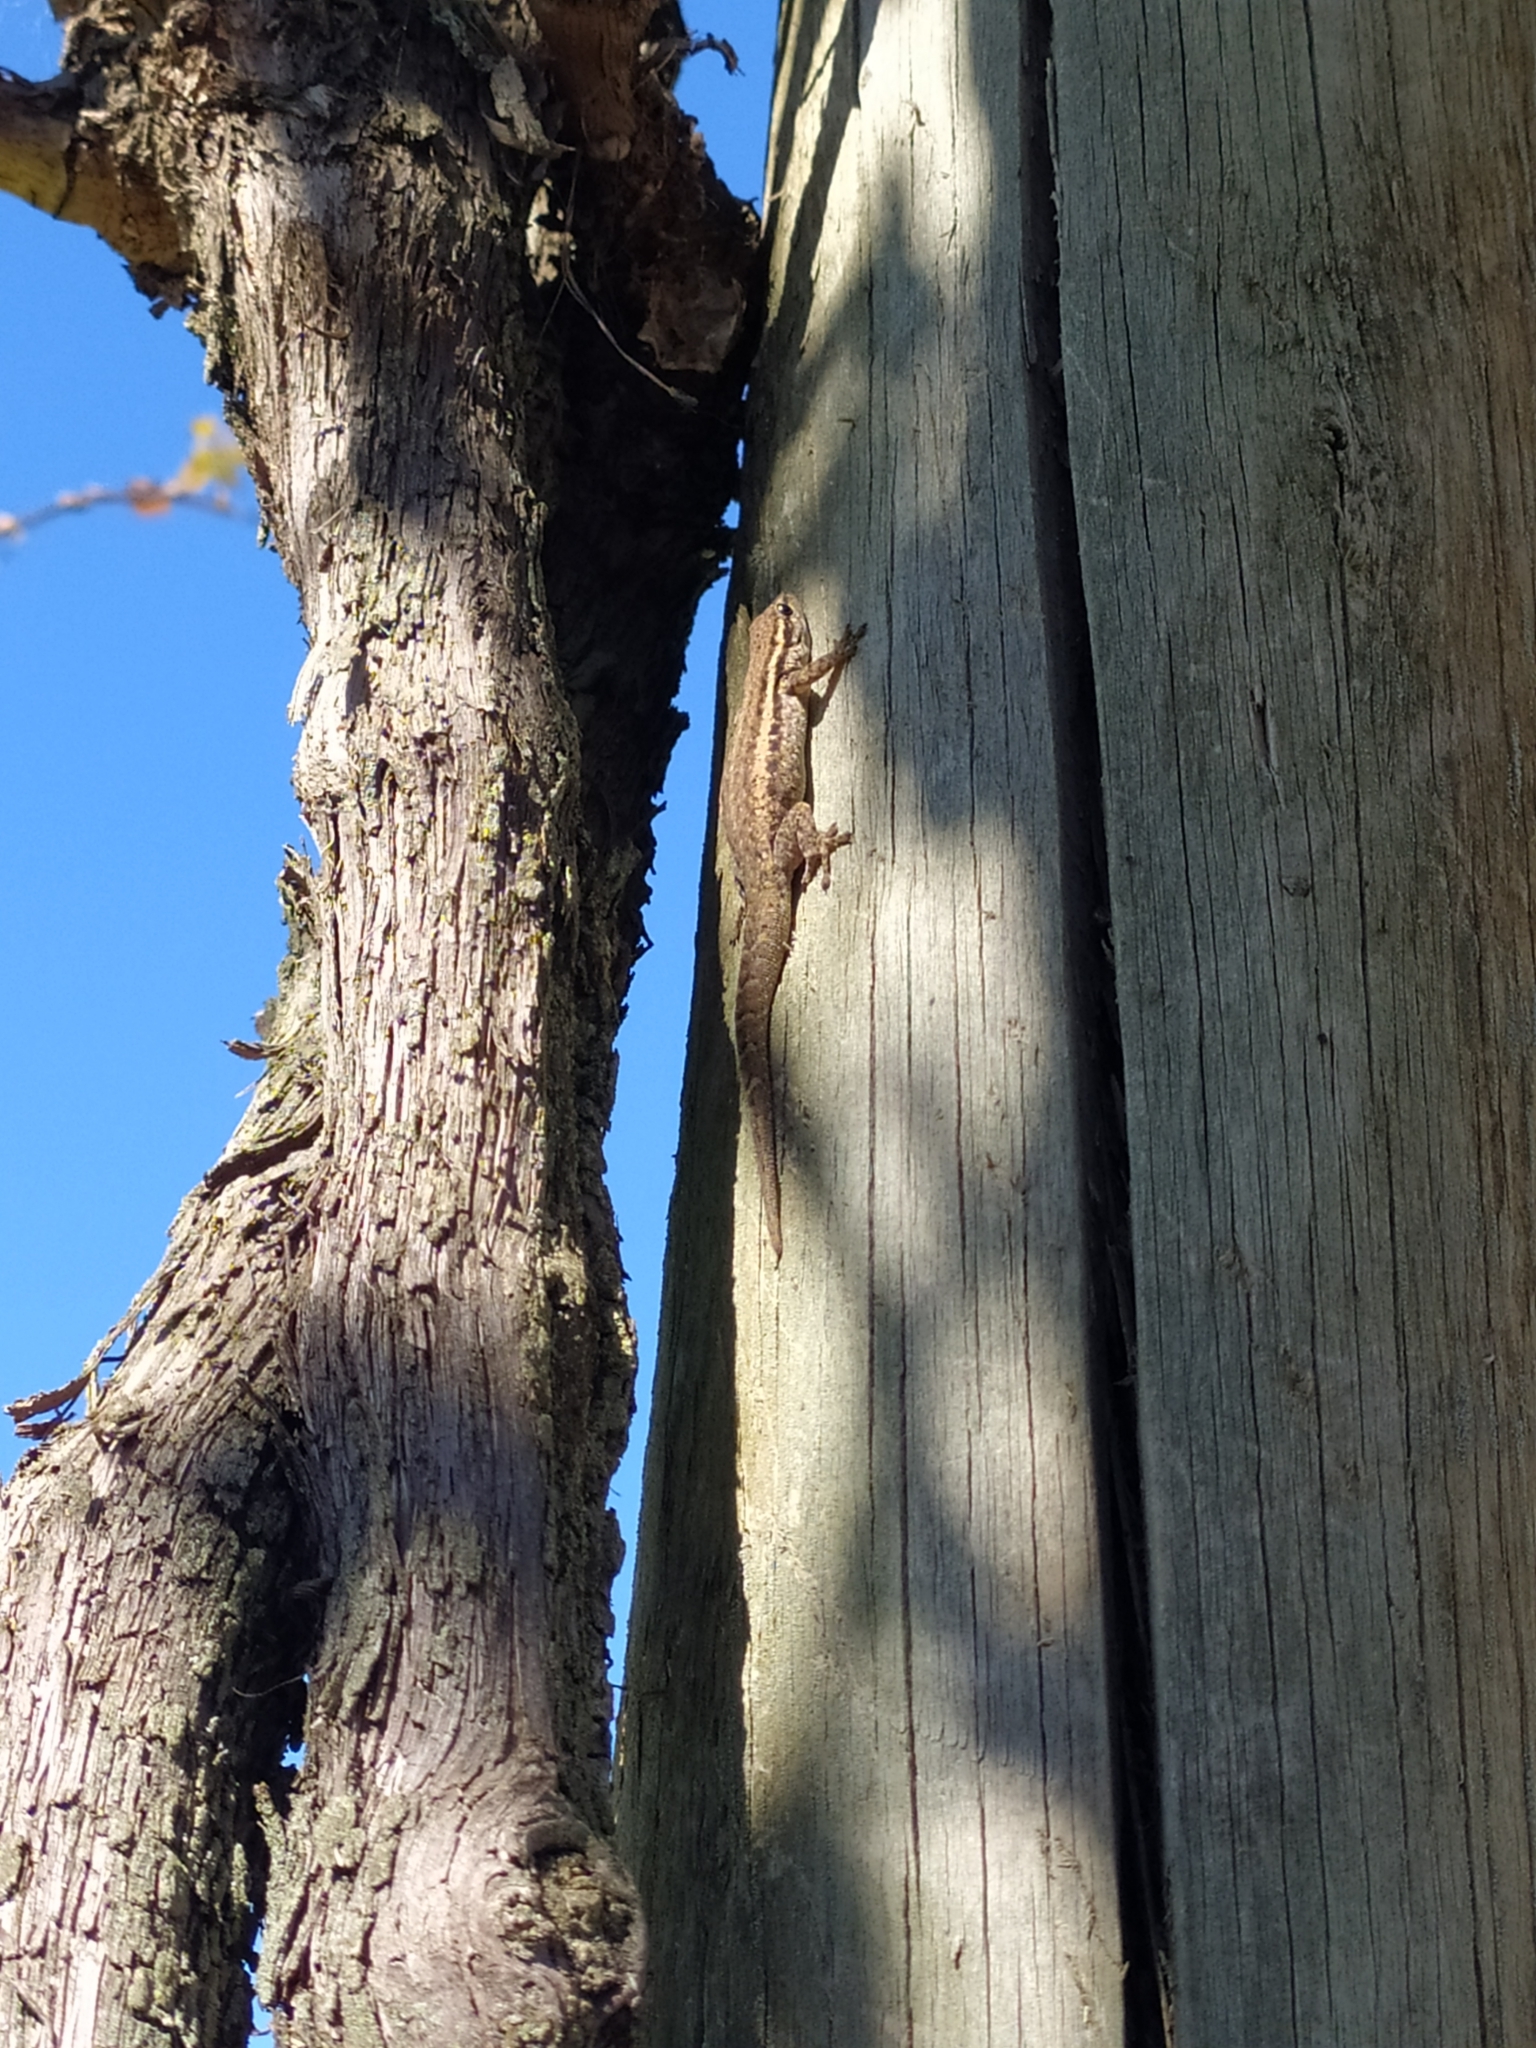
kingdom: Animalia
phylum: Chordata
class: Squamata
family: Gekkonidae
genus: Lygodactylus
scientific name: Lygodactylus capensis
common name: Cape dwarf gecko
